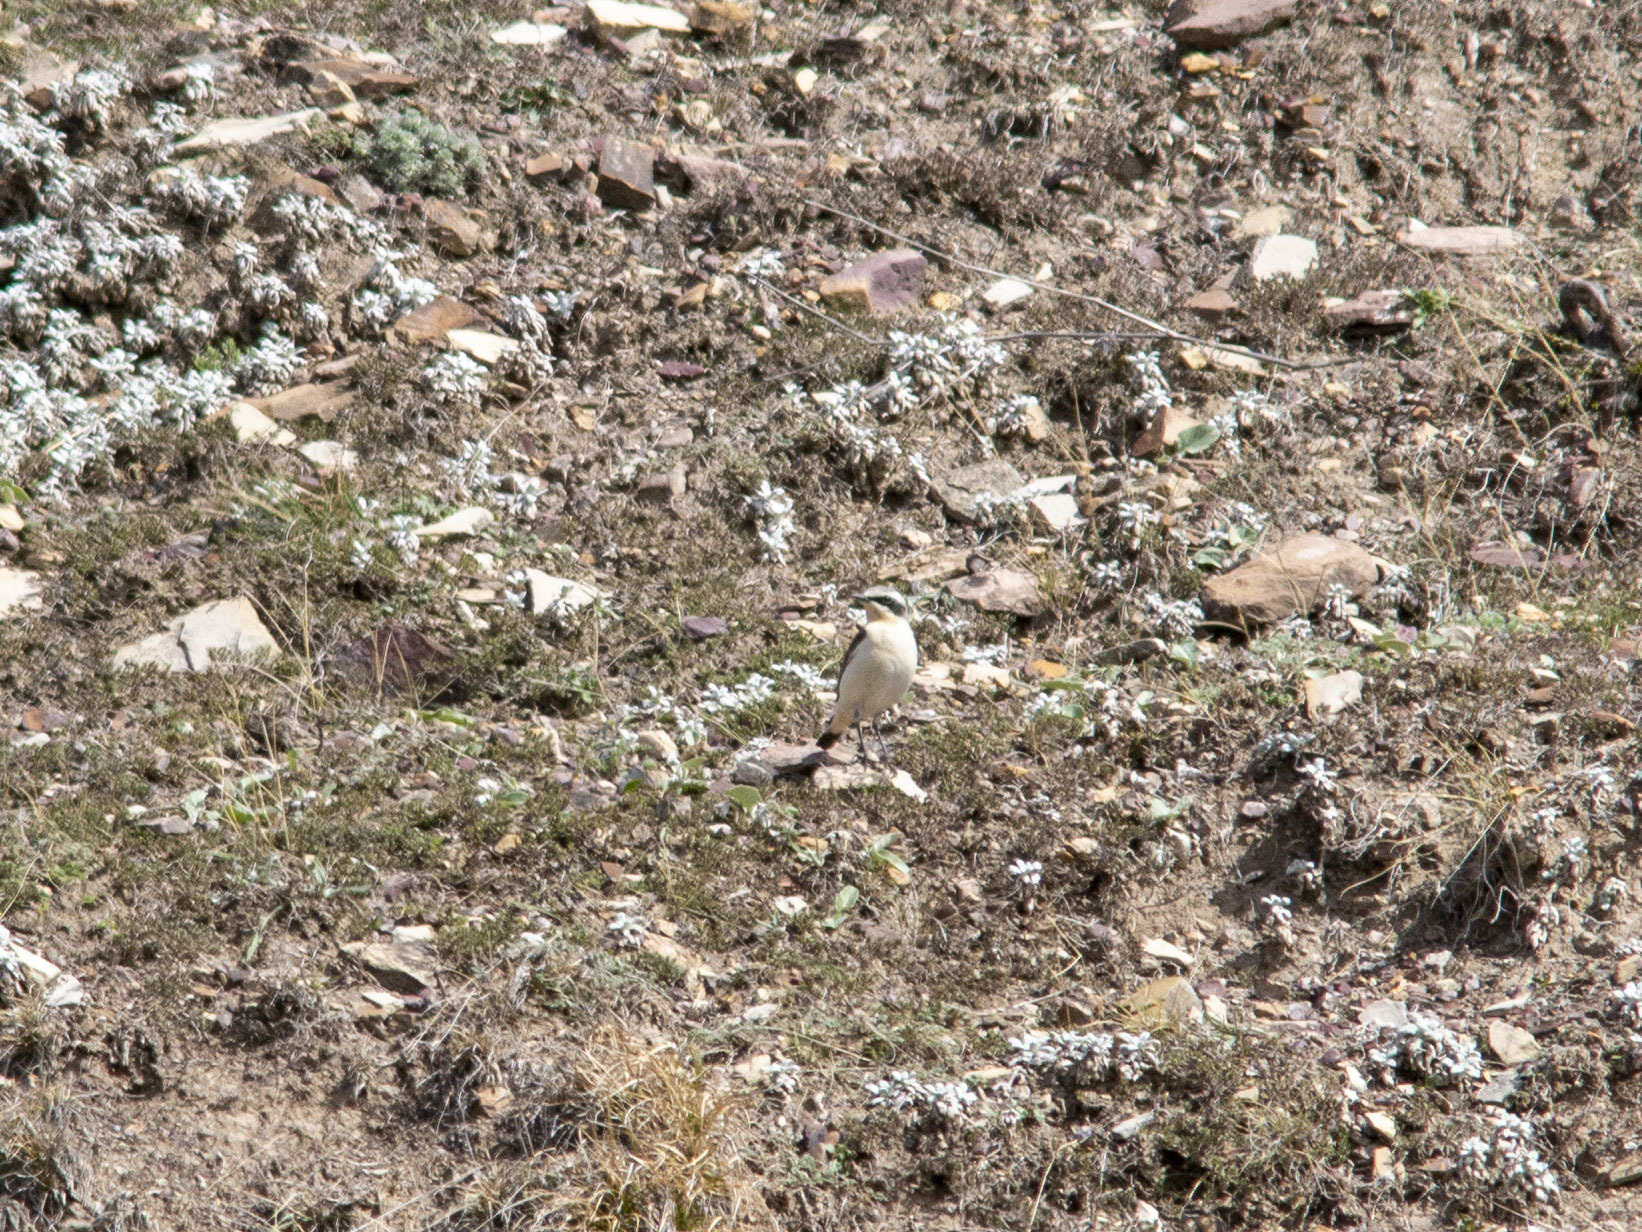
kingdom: Animalia
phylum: Chordata
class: Aves
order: Passeriformes
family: Muscicapidae
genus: Oenanthe
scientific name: Oenanthe oenanthe
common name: Northern wheatear
